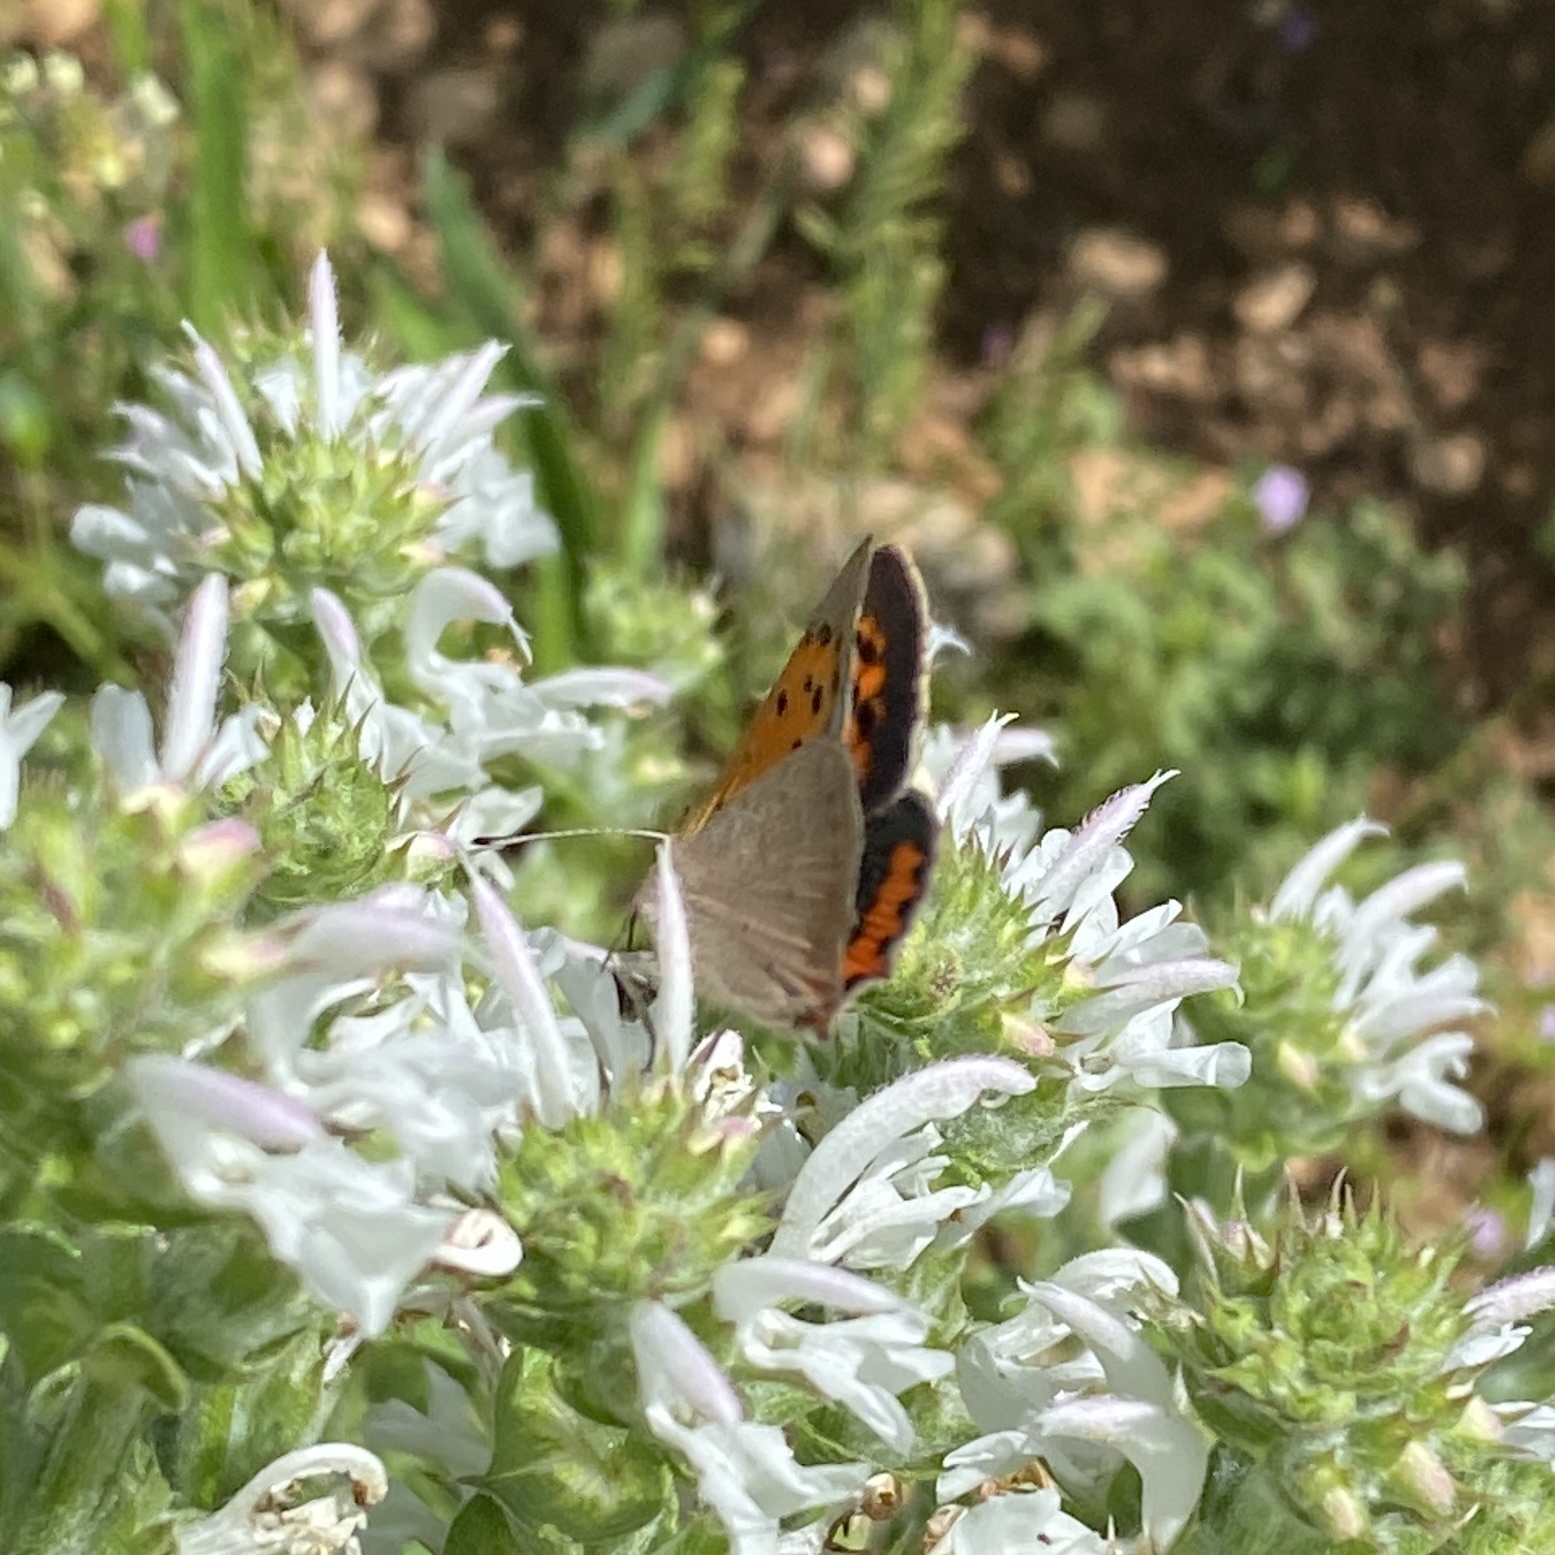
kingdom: Animalia
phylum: Arthropoda
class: Insecta
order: Lepidoptera
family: Lycaenidae
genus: Lycaena
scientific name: Lycaena phlaeas
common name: Small copper
